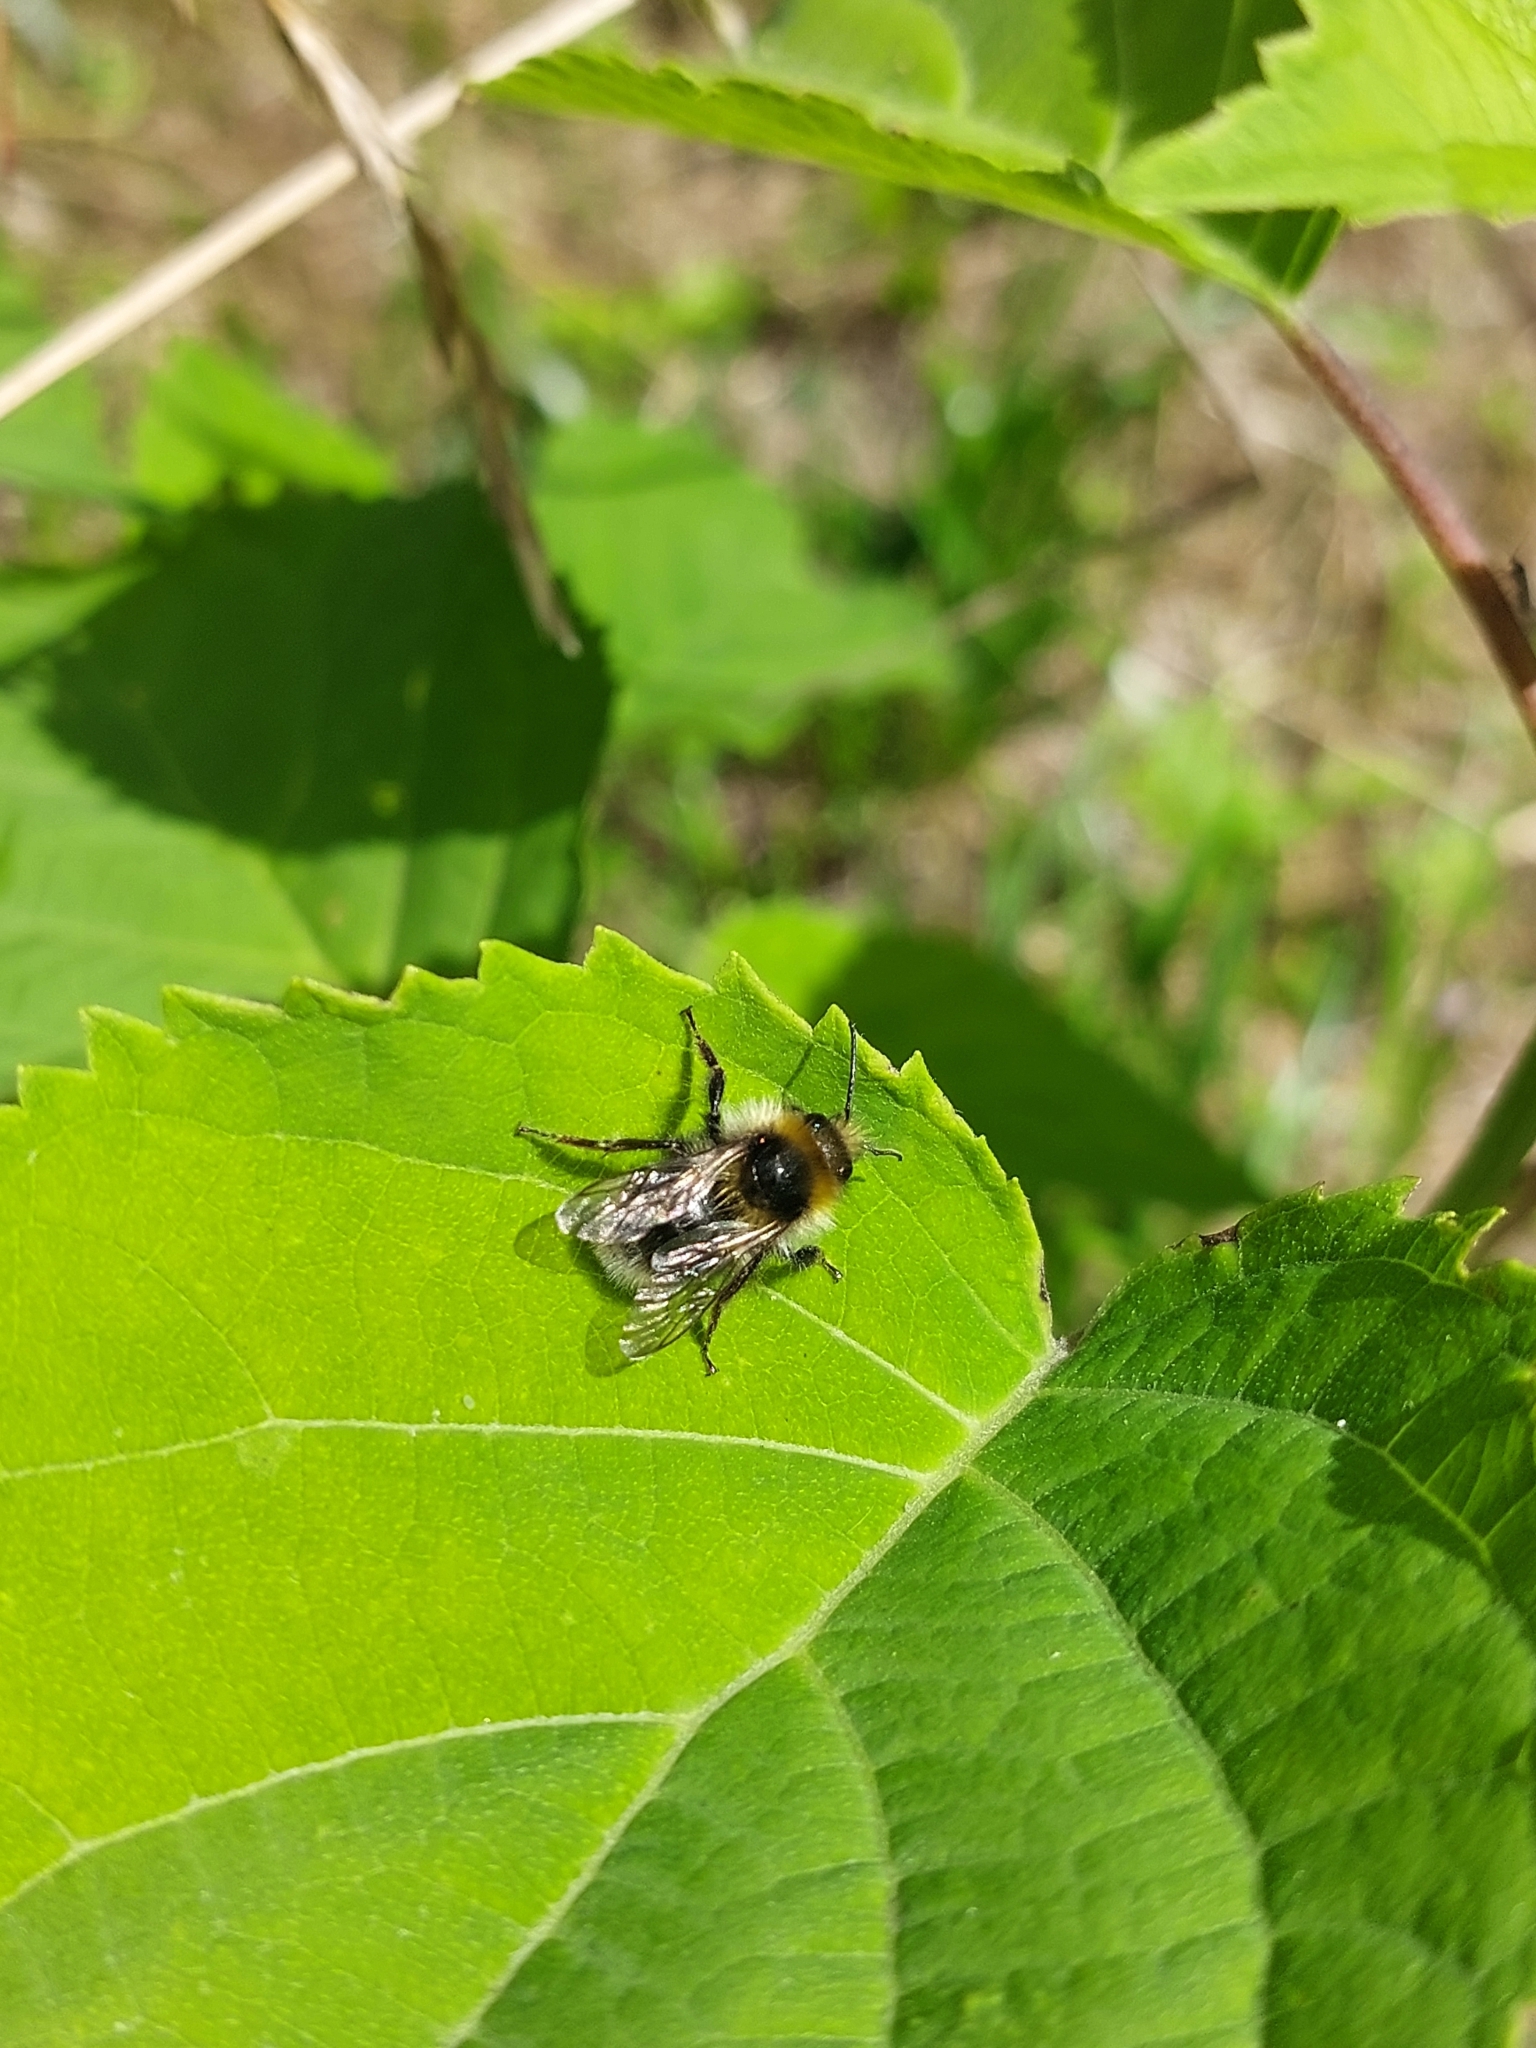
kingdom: Animalia
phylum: Arthropoda
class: Insecta
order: Hymenoptera
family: Apidae
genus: Bombus
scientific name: Bombus semenoviellus
